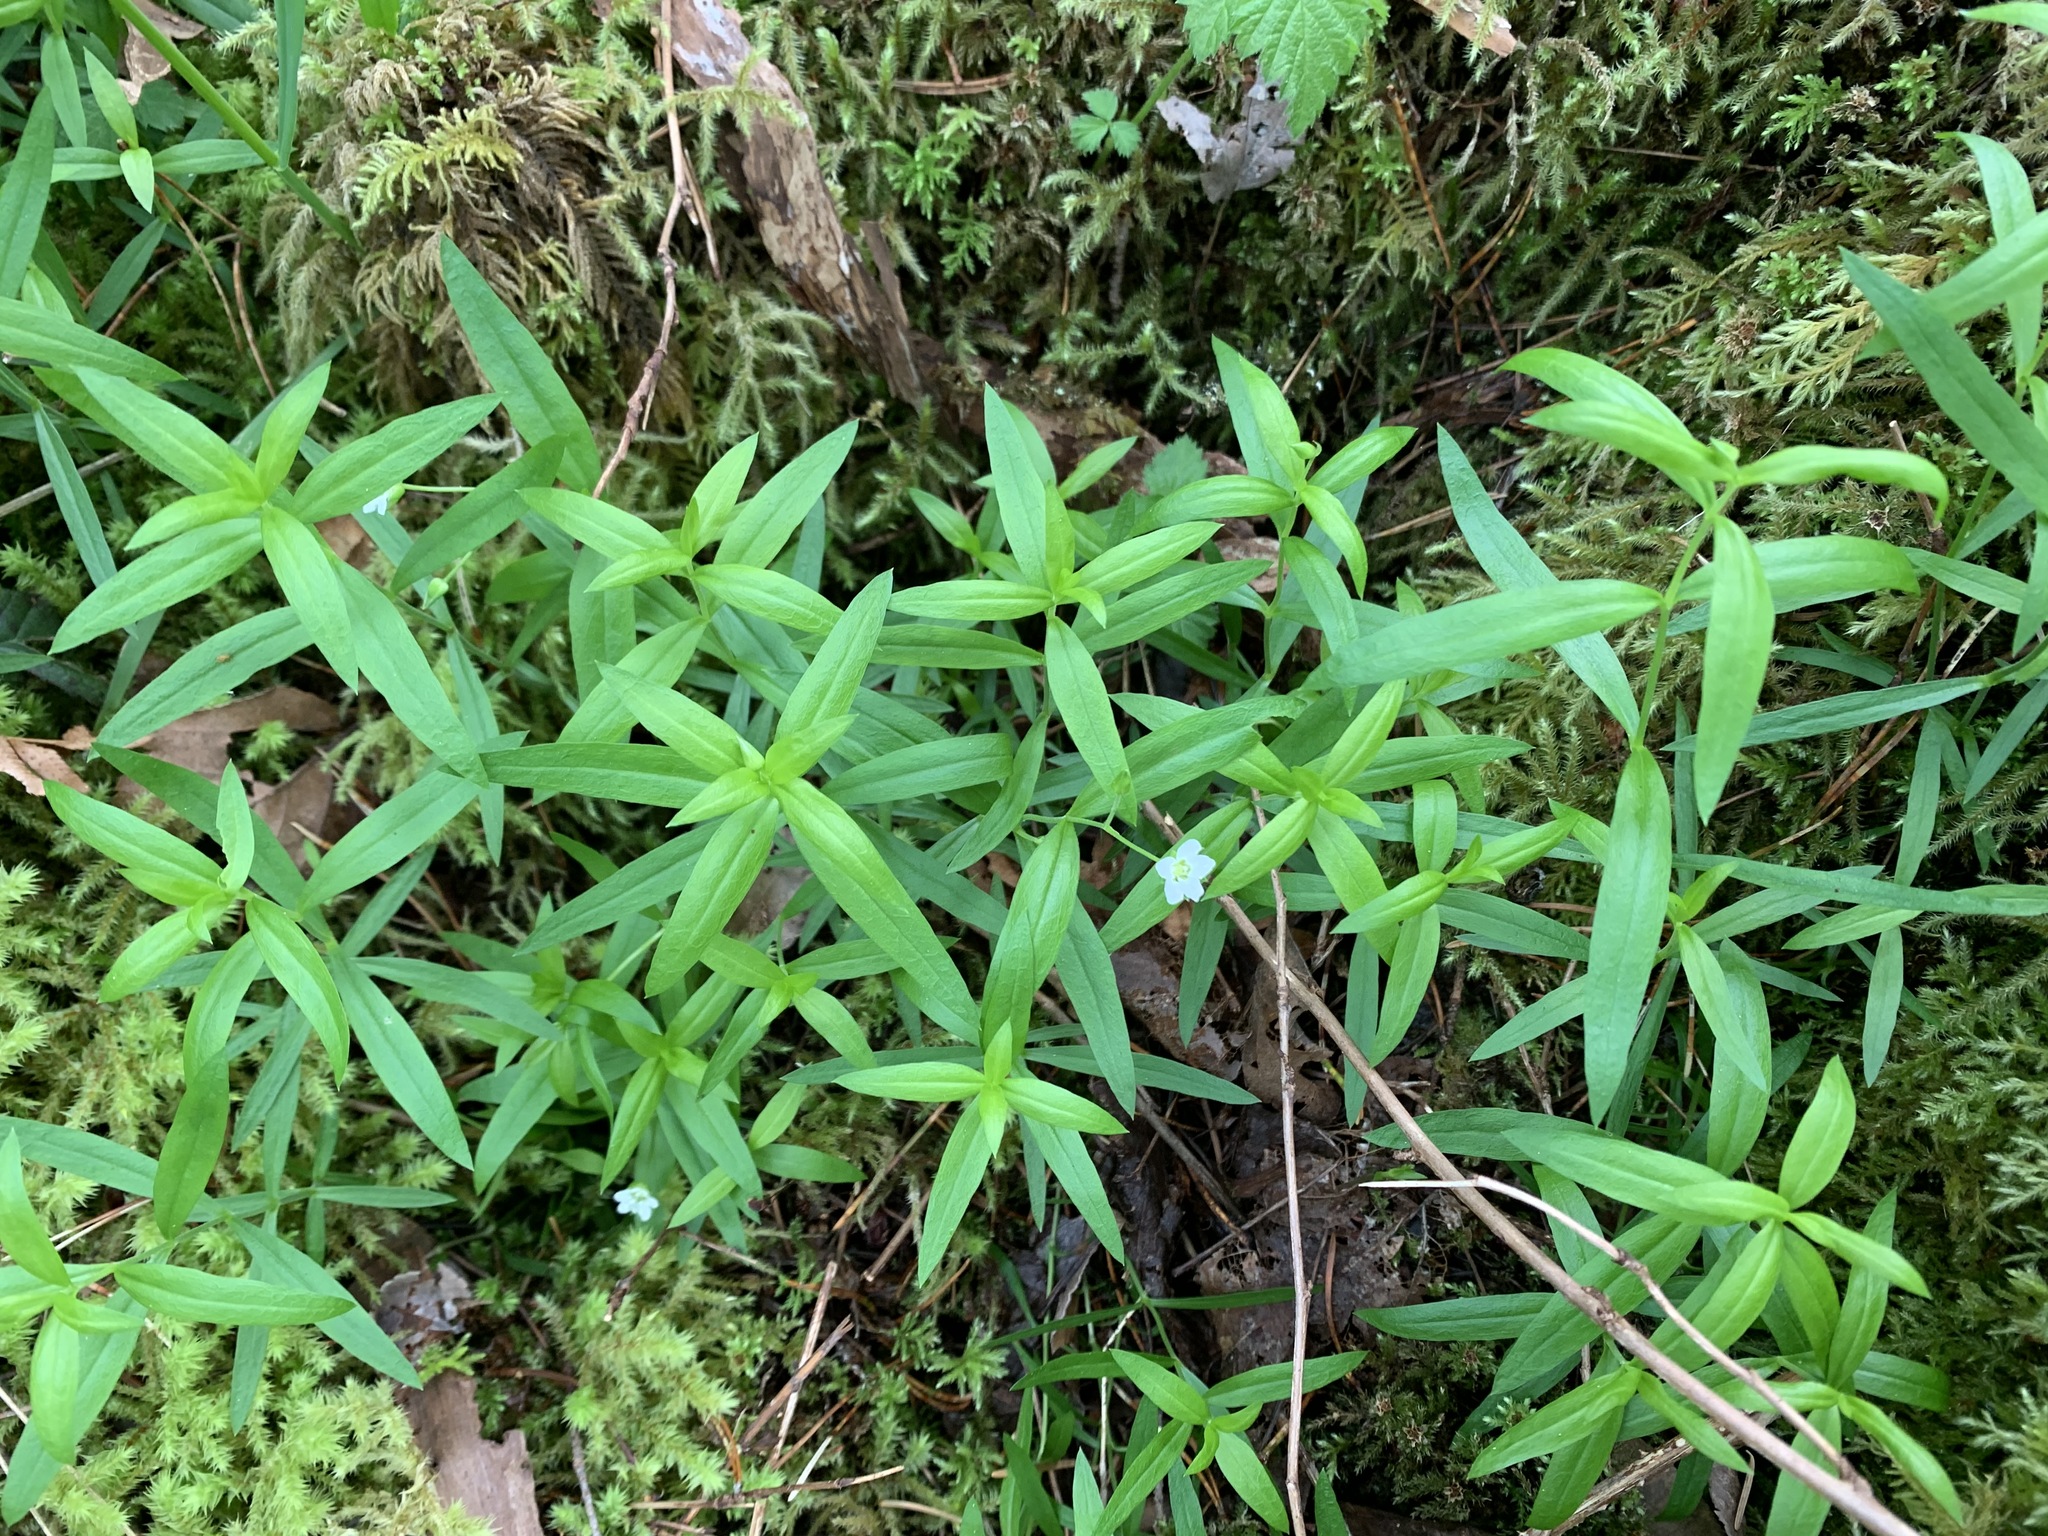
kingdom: Plantae
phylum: Tracheophyta
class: Magnoliopsida
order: Caryophyllales
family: Caryophyllaceae
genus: Moehringia
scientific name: Moehringia macrophylla
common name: Big-leaf sandwort
